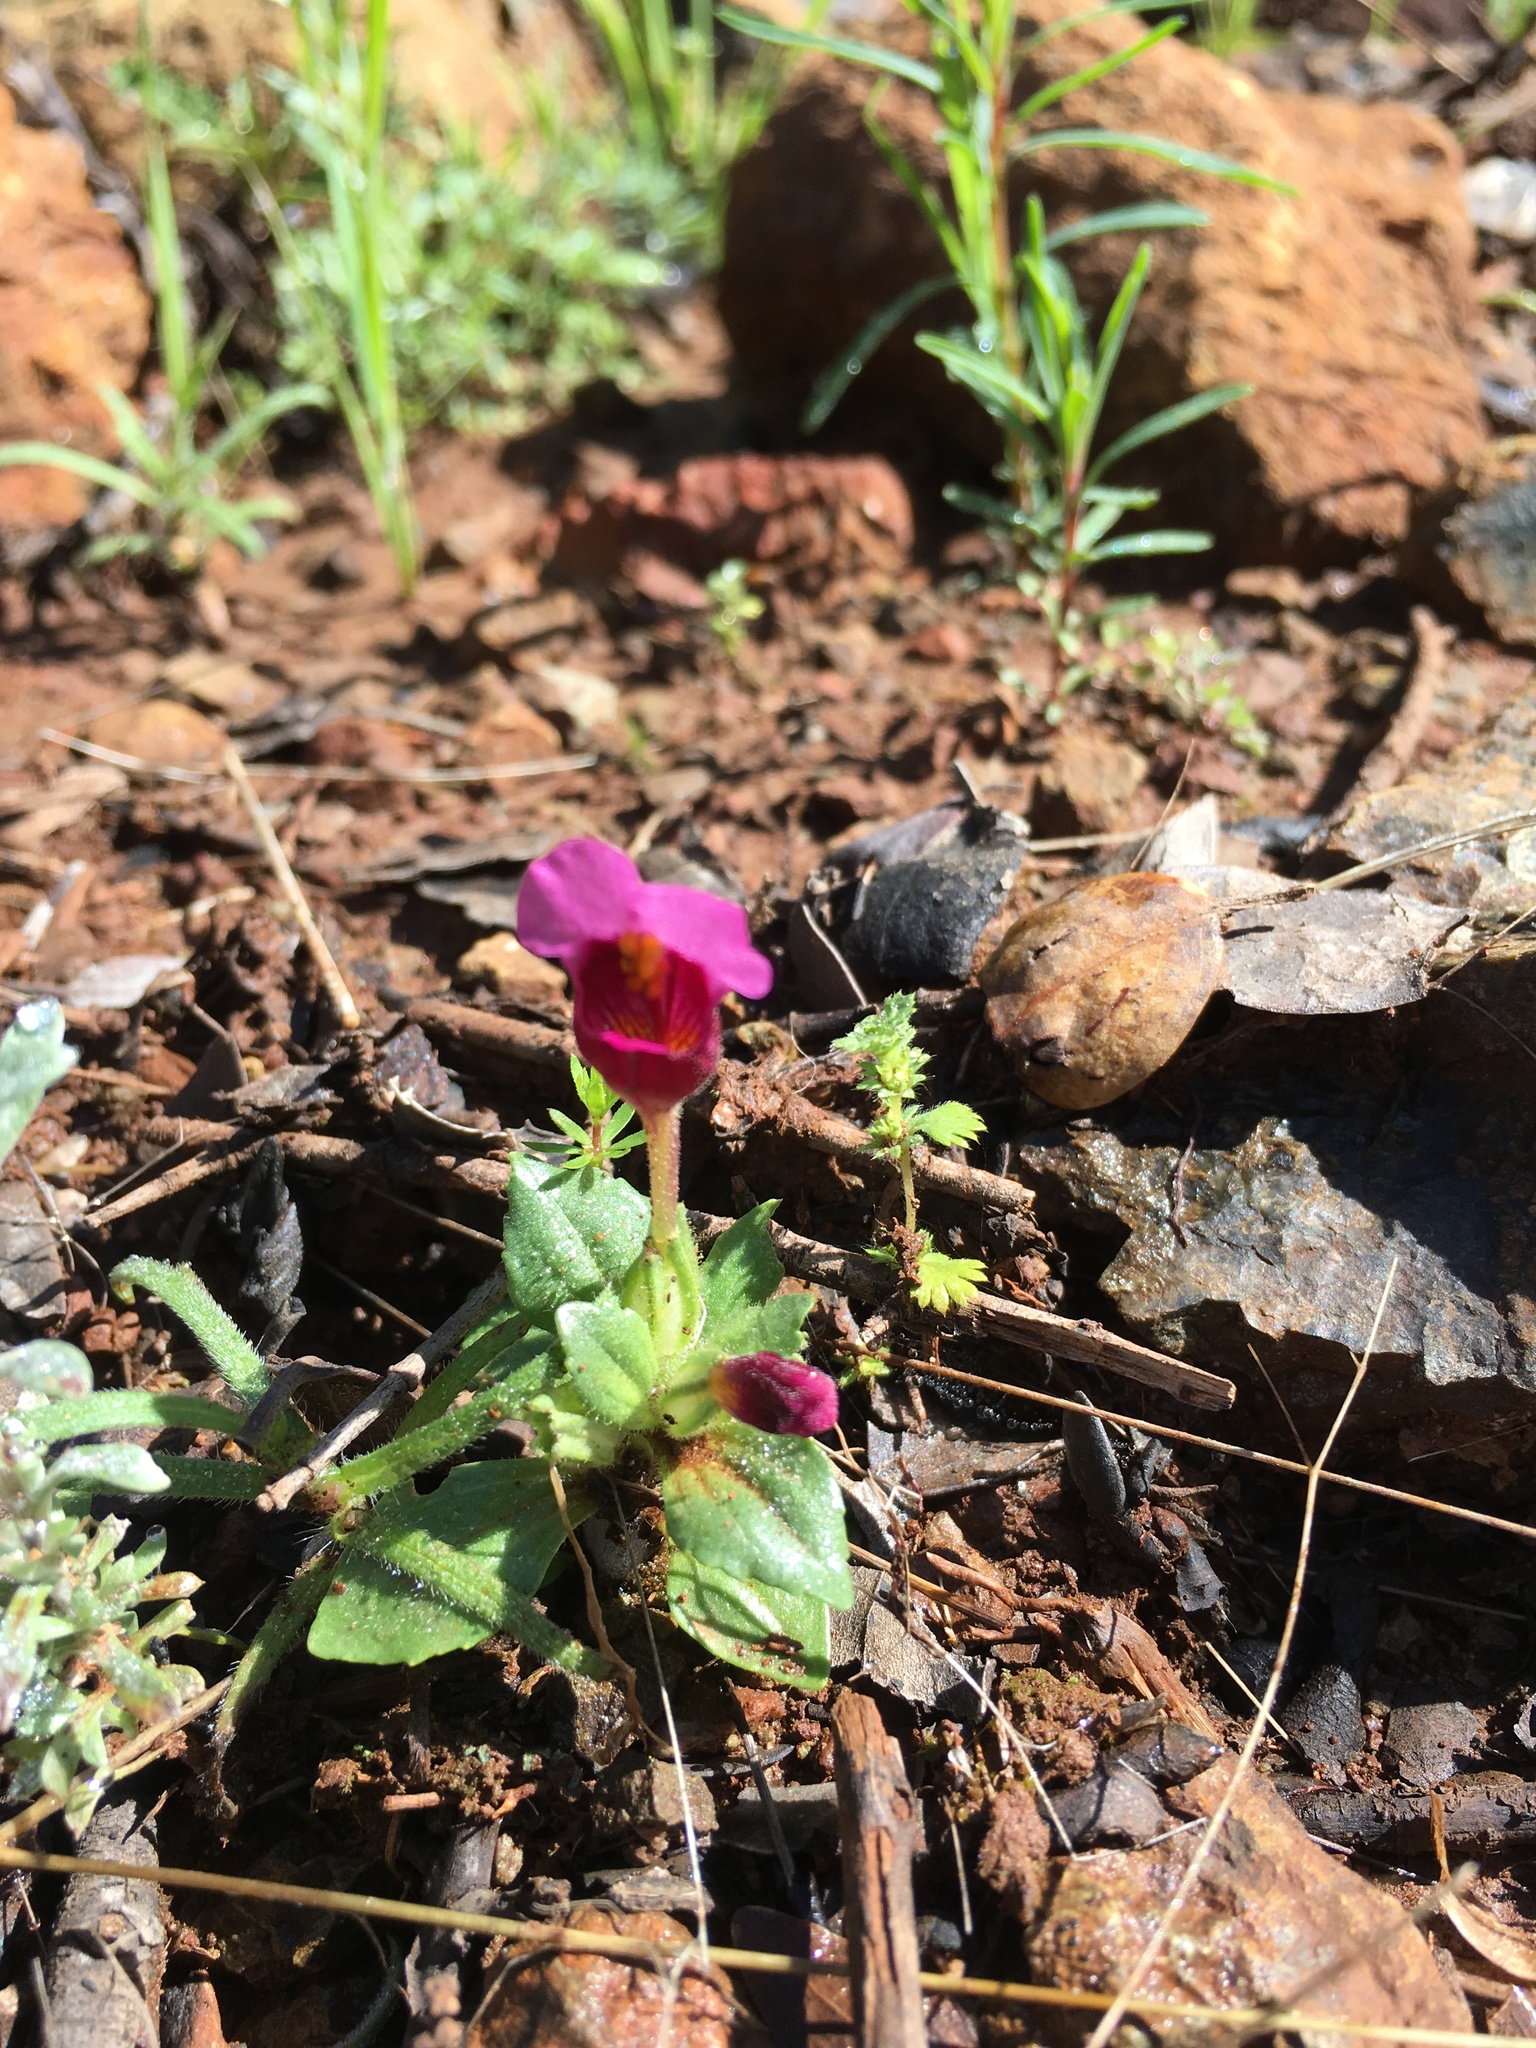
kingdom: Plantae
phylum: Tracheophyta
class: Magnoliopsida
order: Lamiales
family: Phrymaceae
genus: Diplacus
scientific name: Diplacus douglasii
